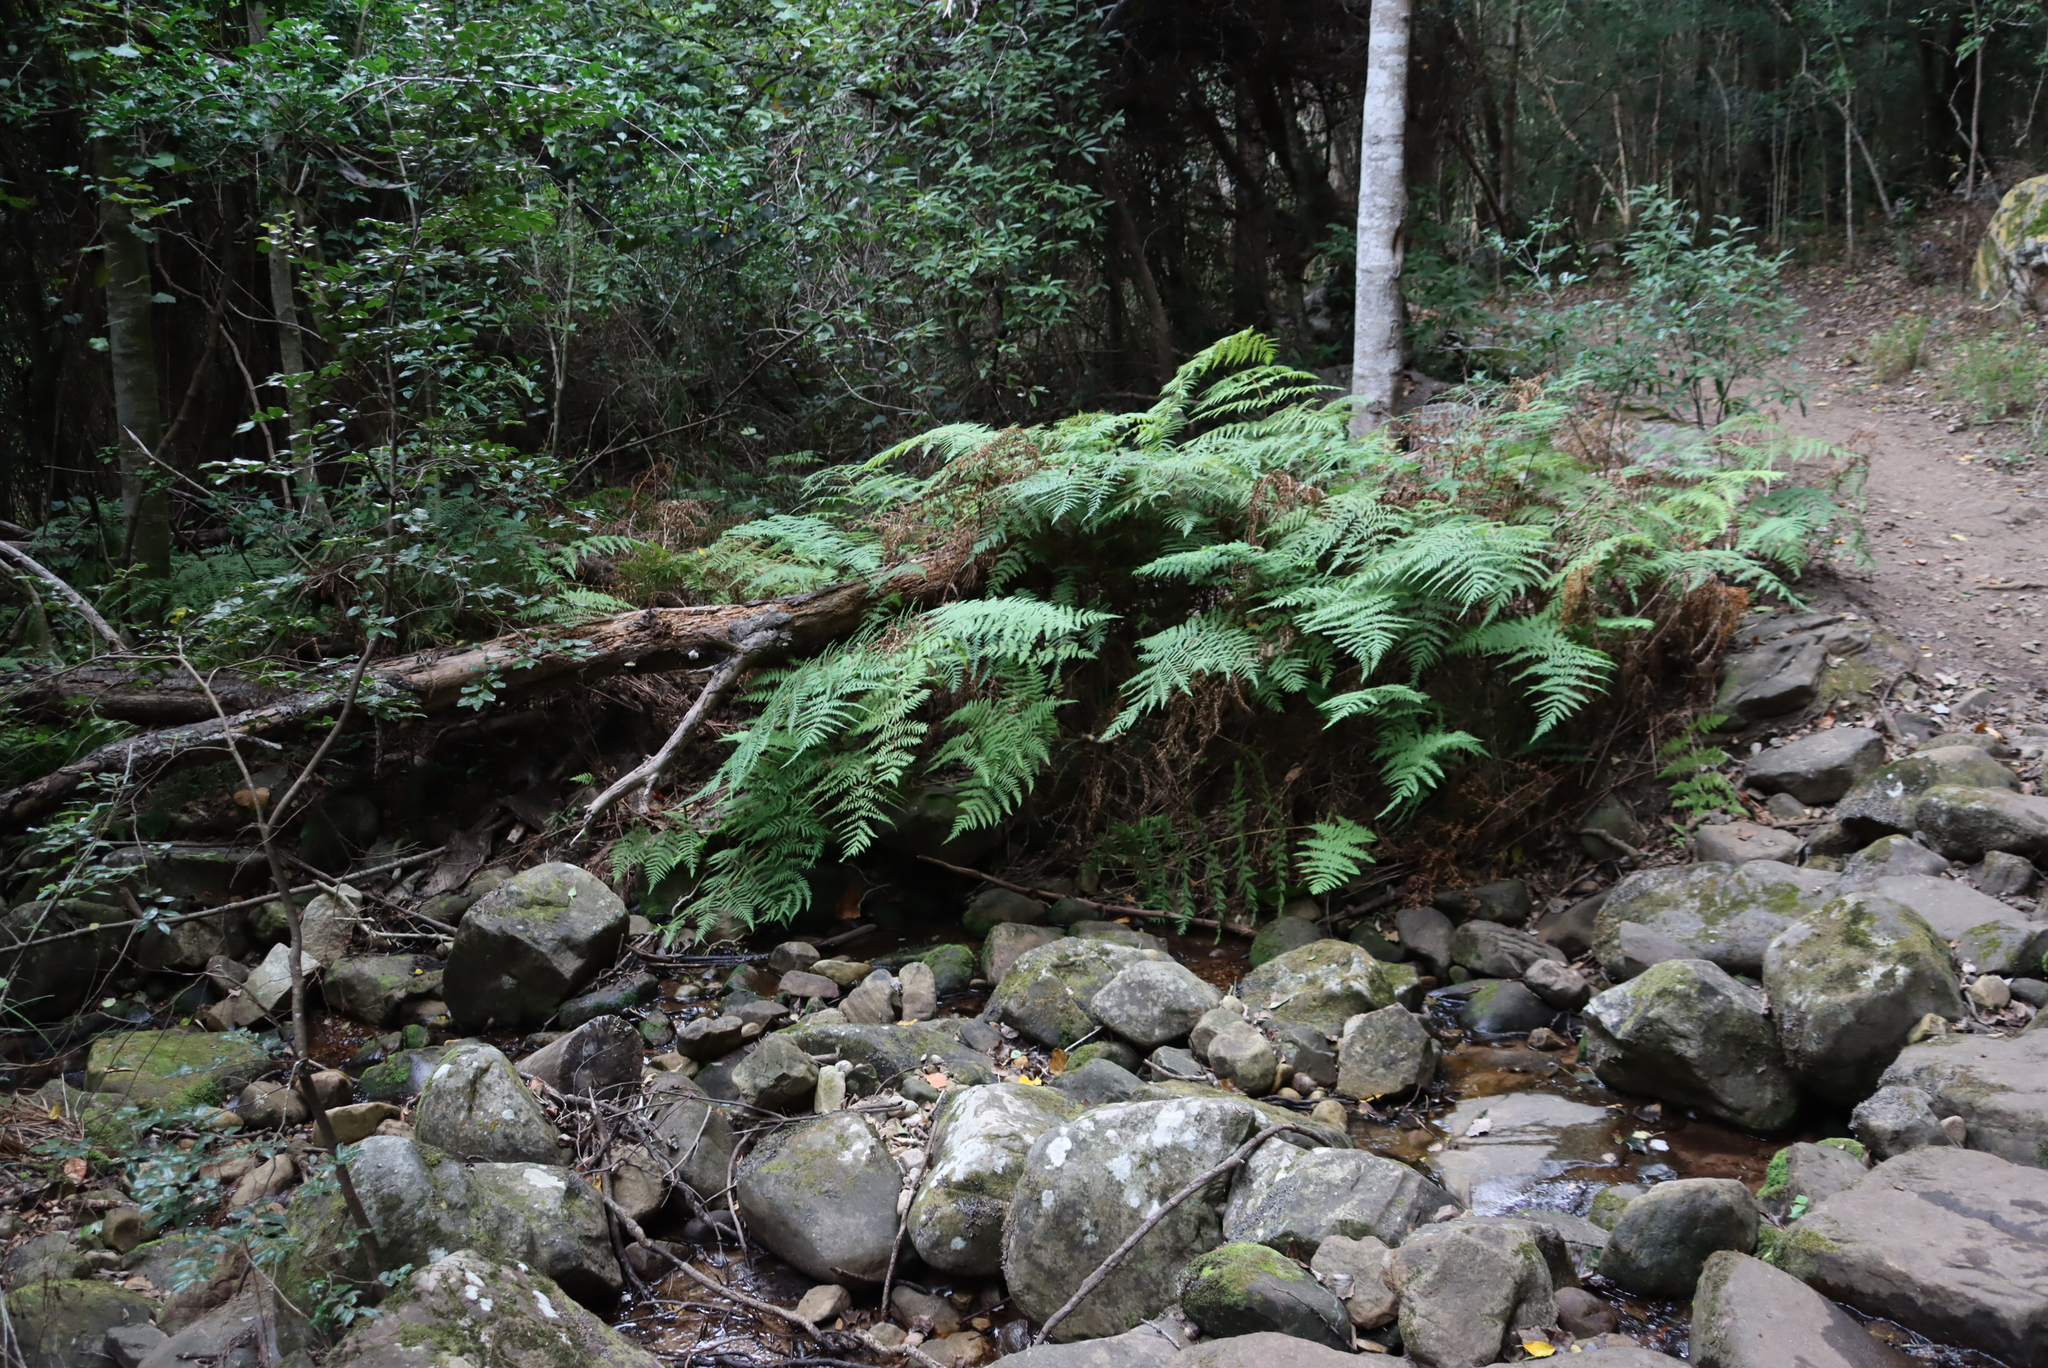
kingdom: Plantae
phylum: Tracheophyta
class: Polypodiopsida
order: Cyatheales
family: Cyatheaceae
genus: Sphaeropteris
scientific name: Sphaeropteris cooperi
